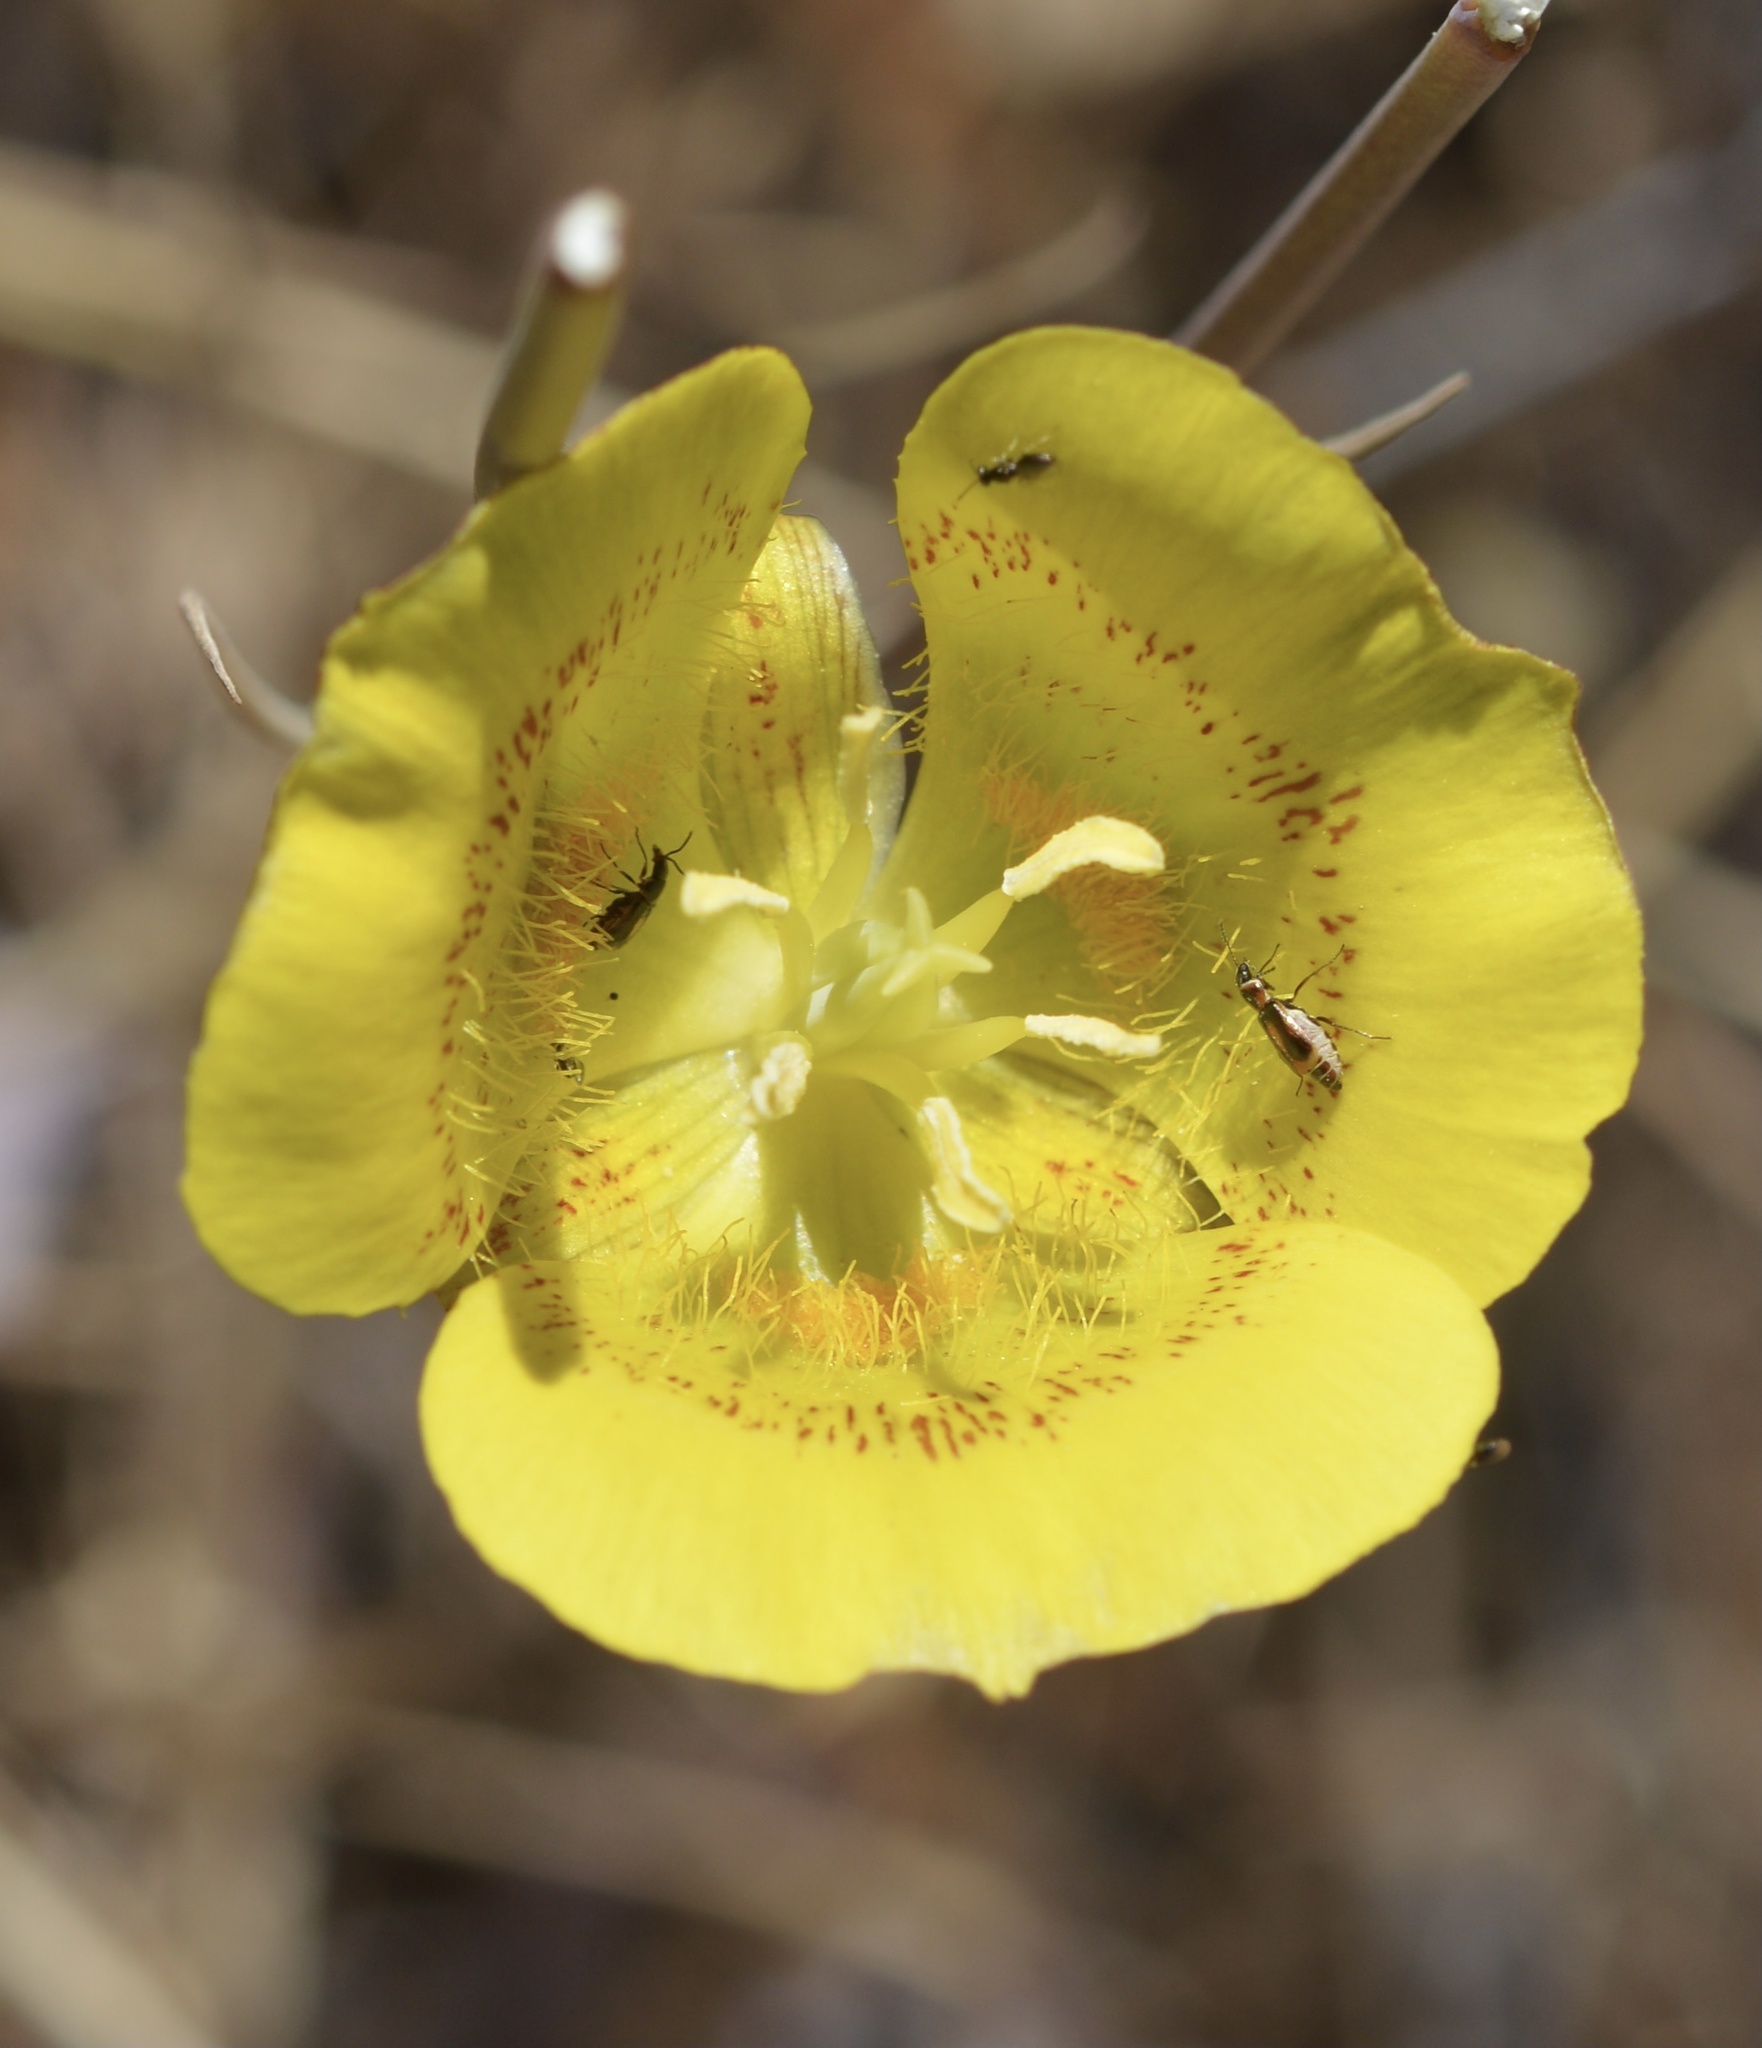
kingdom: Plantae
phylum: Tracheophyta
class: Liliopsida
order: Liliales
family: Liliaceae
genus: Calochortus
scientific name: Calochortus luteus
